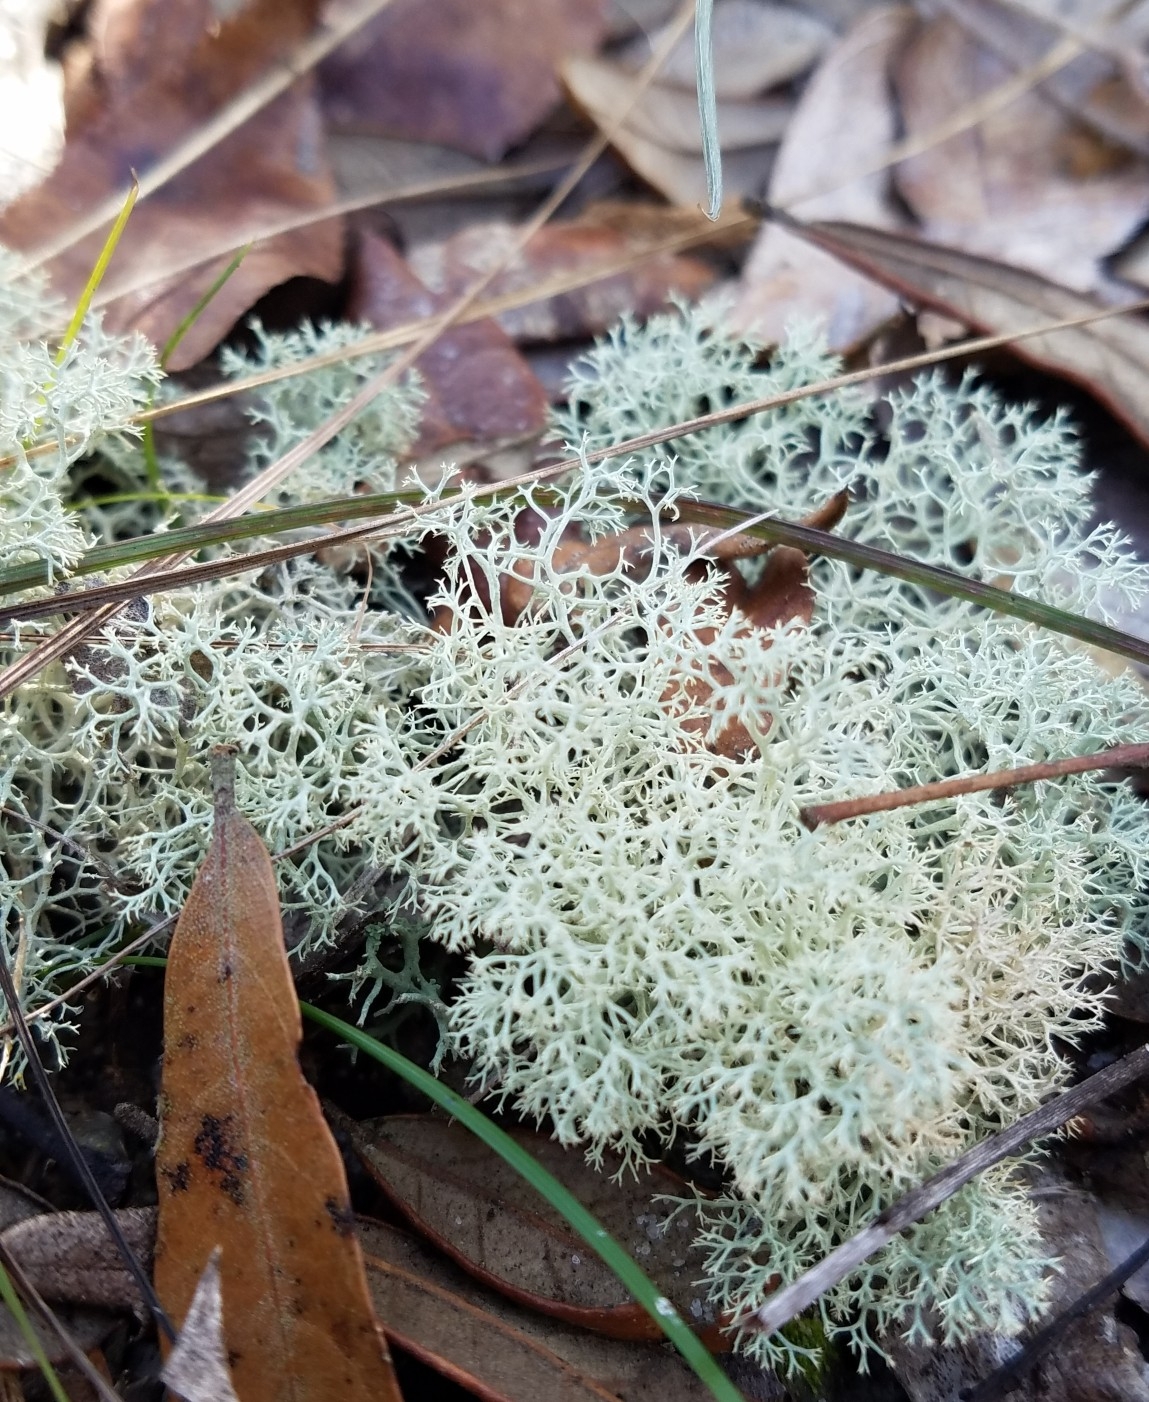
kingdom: Fungi
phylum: Ascomycota
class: Lecanoromycetes
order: Lecanorales
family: Cladoniaceae
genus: Cladonia
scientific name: Cladonia evansii
